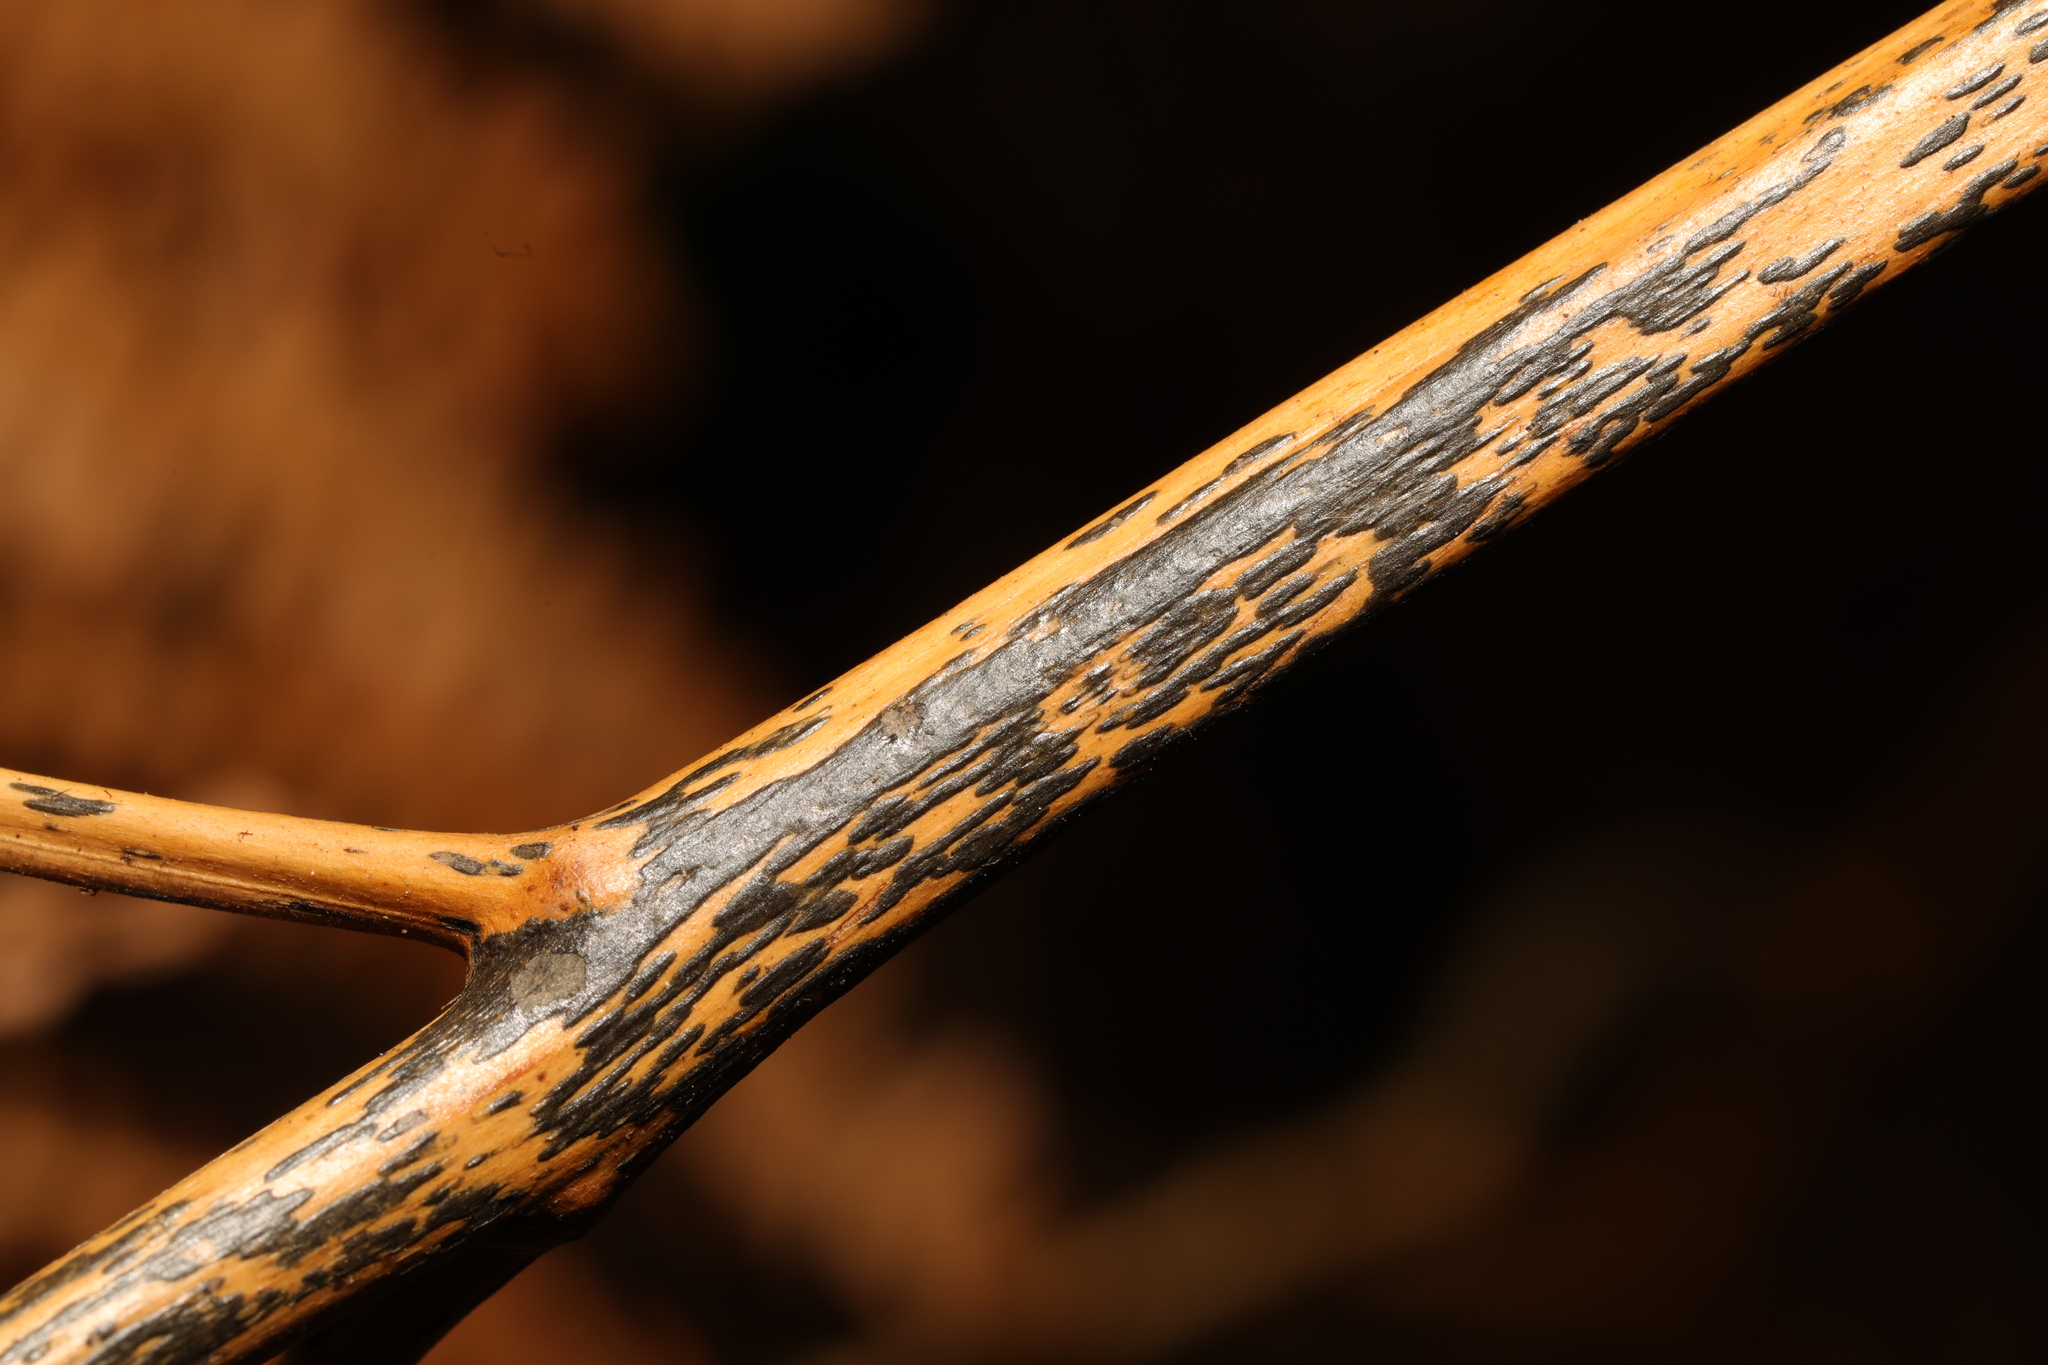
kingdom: Fungi
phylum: Ascomycota
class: Dothideomycetes
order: Pleosporales
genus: Rhopographus
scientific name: Rhopographus filicinus
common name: Bracken map
